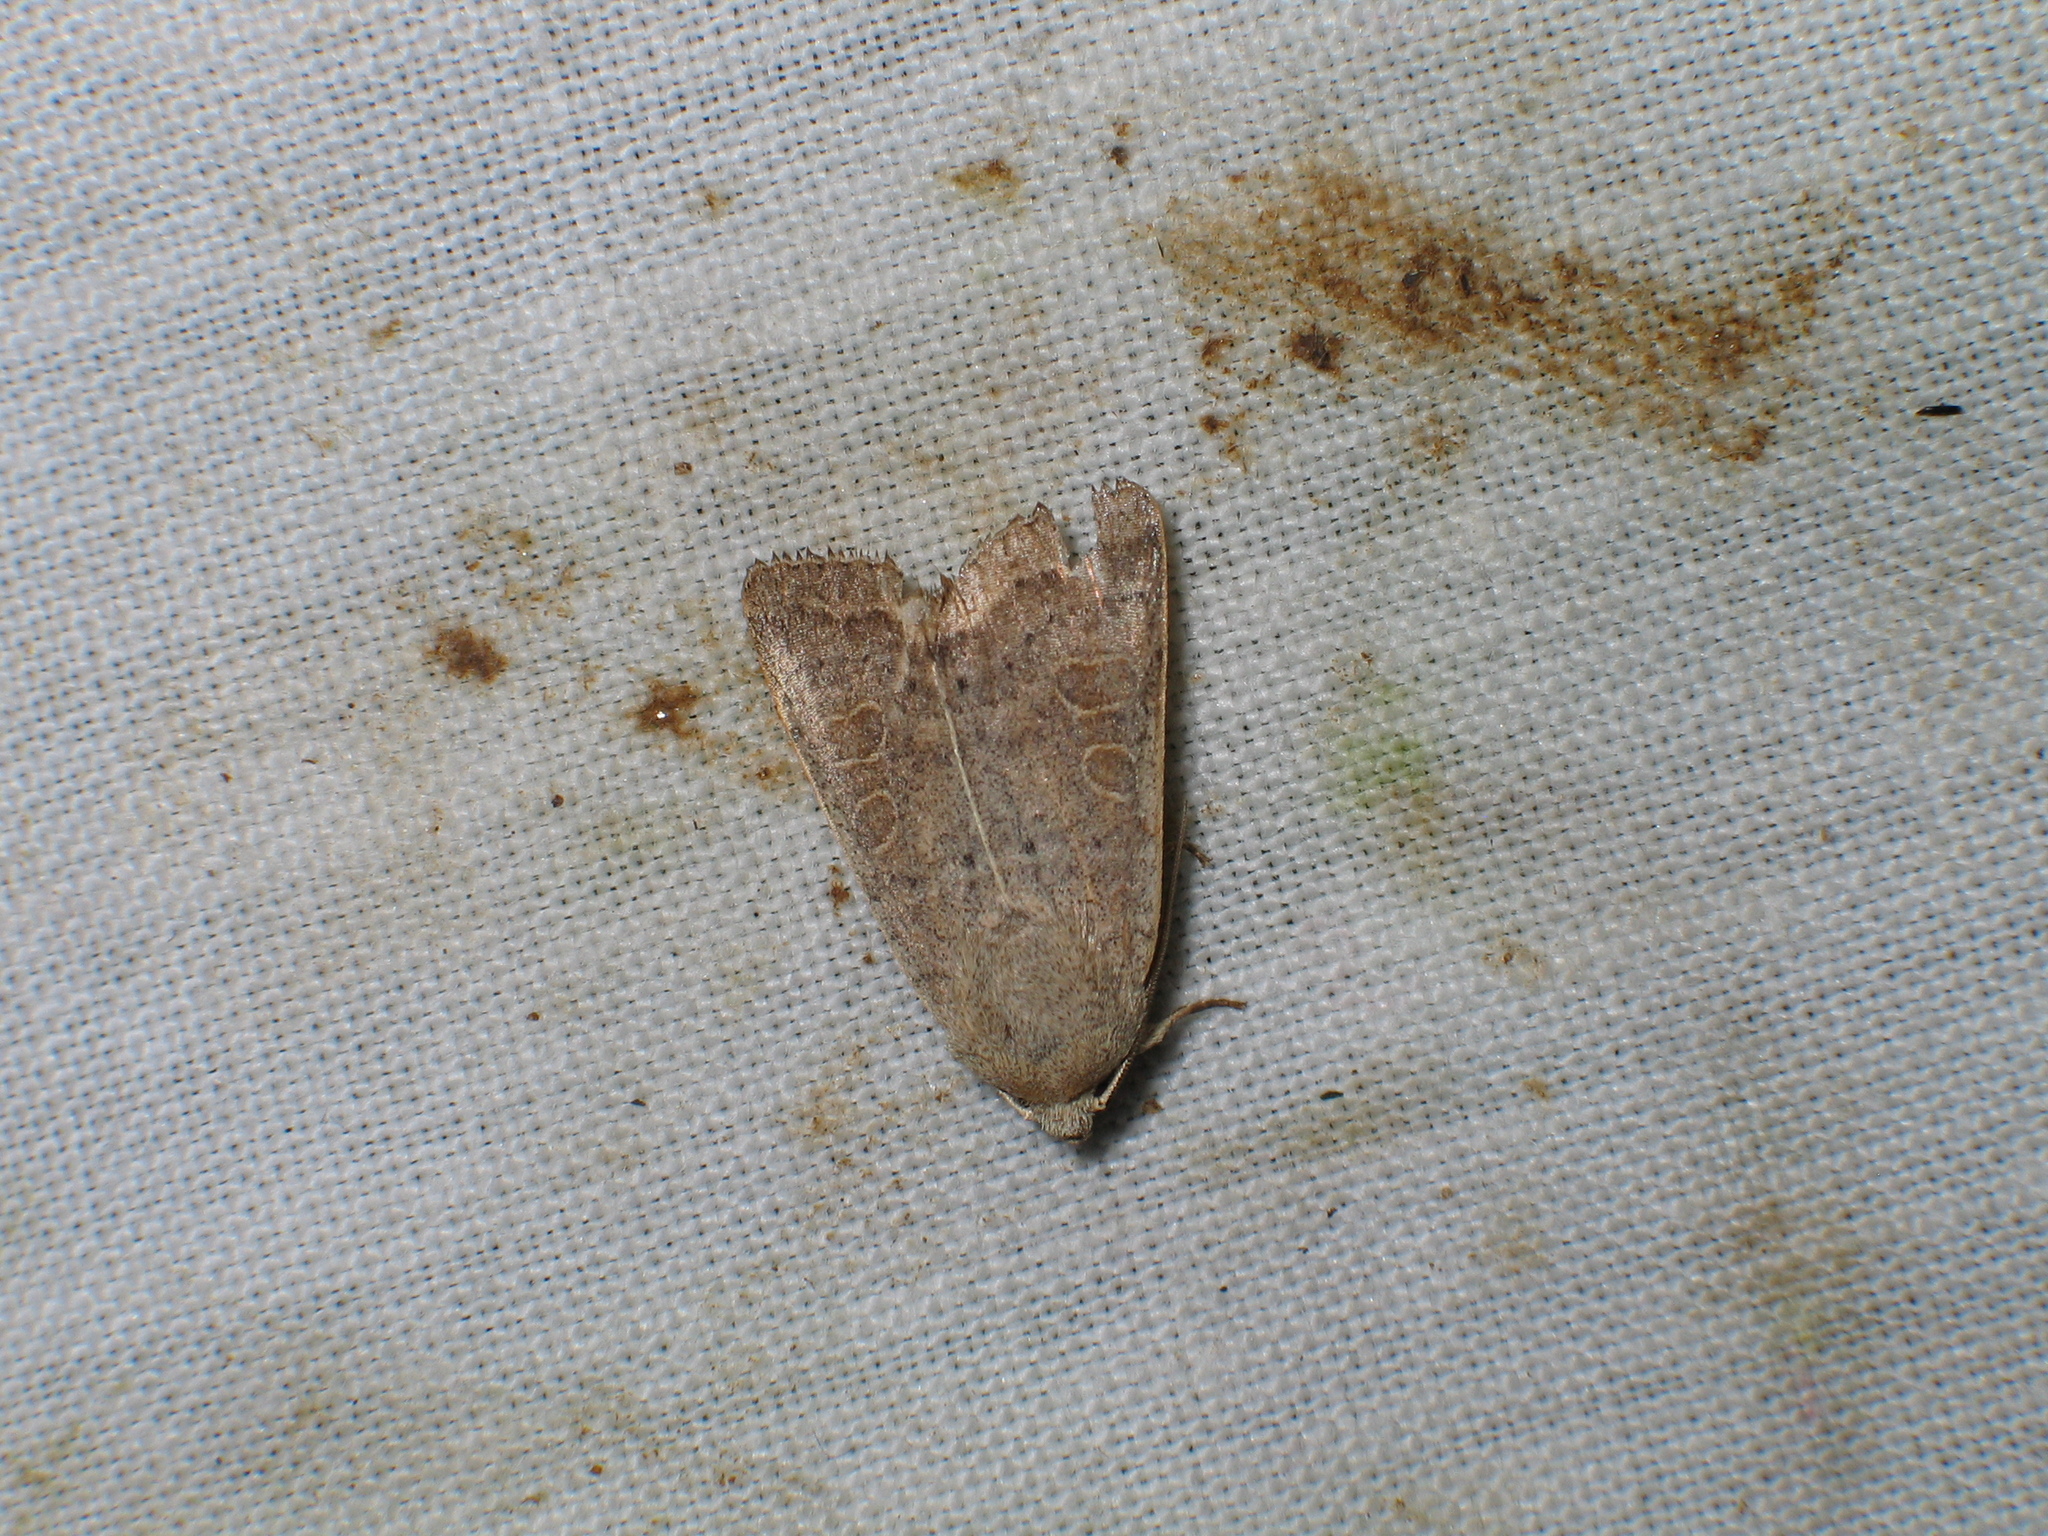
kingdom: Animalia
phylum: Arthropoda
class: Insecta
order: Lepidoptera
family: Noctuidae
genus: Hoplodrina
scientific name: Hoplodrina ambigua
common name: Vine's rustic
